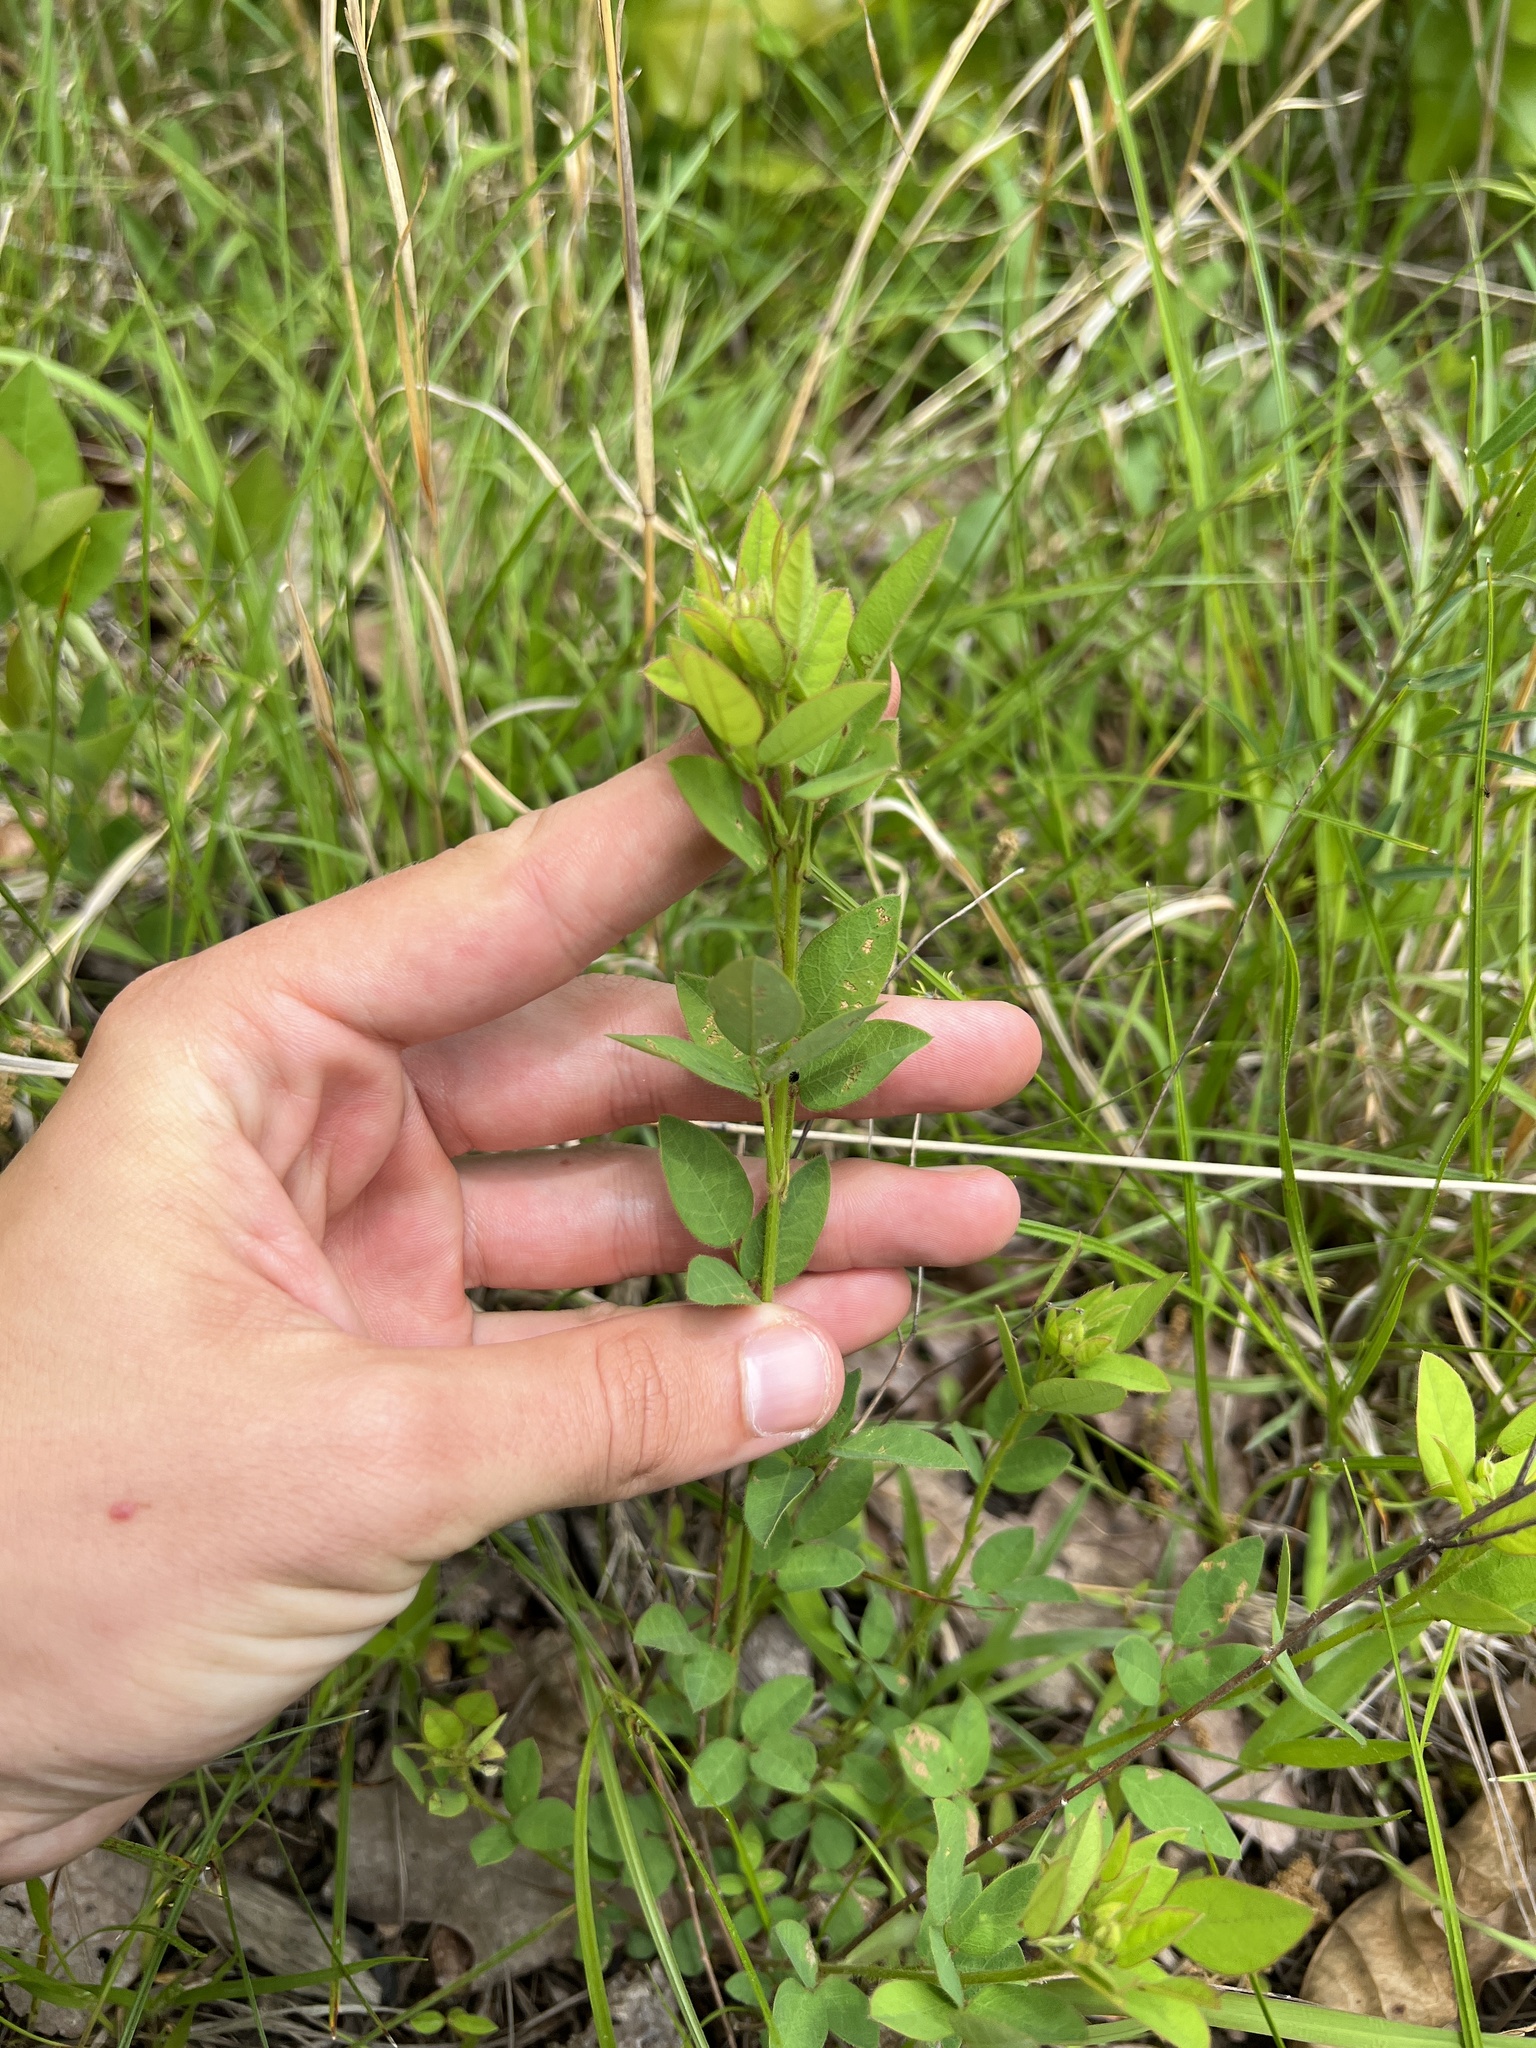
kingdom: Plantae
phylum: Tracheophyta
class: Magnoliopsida
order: Fabales
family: Fabaceae
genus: Desmodium
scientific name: Desmodium ciliare
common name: Hairy small-leaf ticktrefoil
